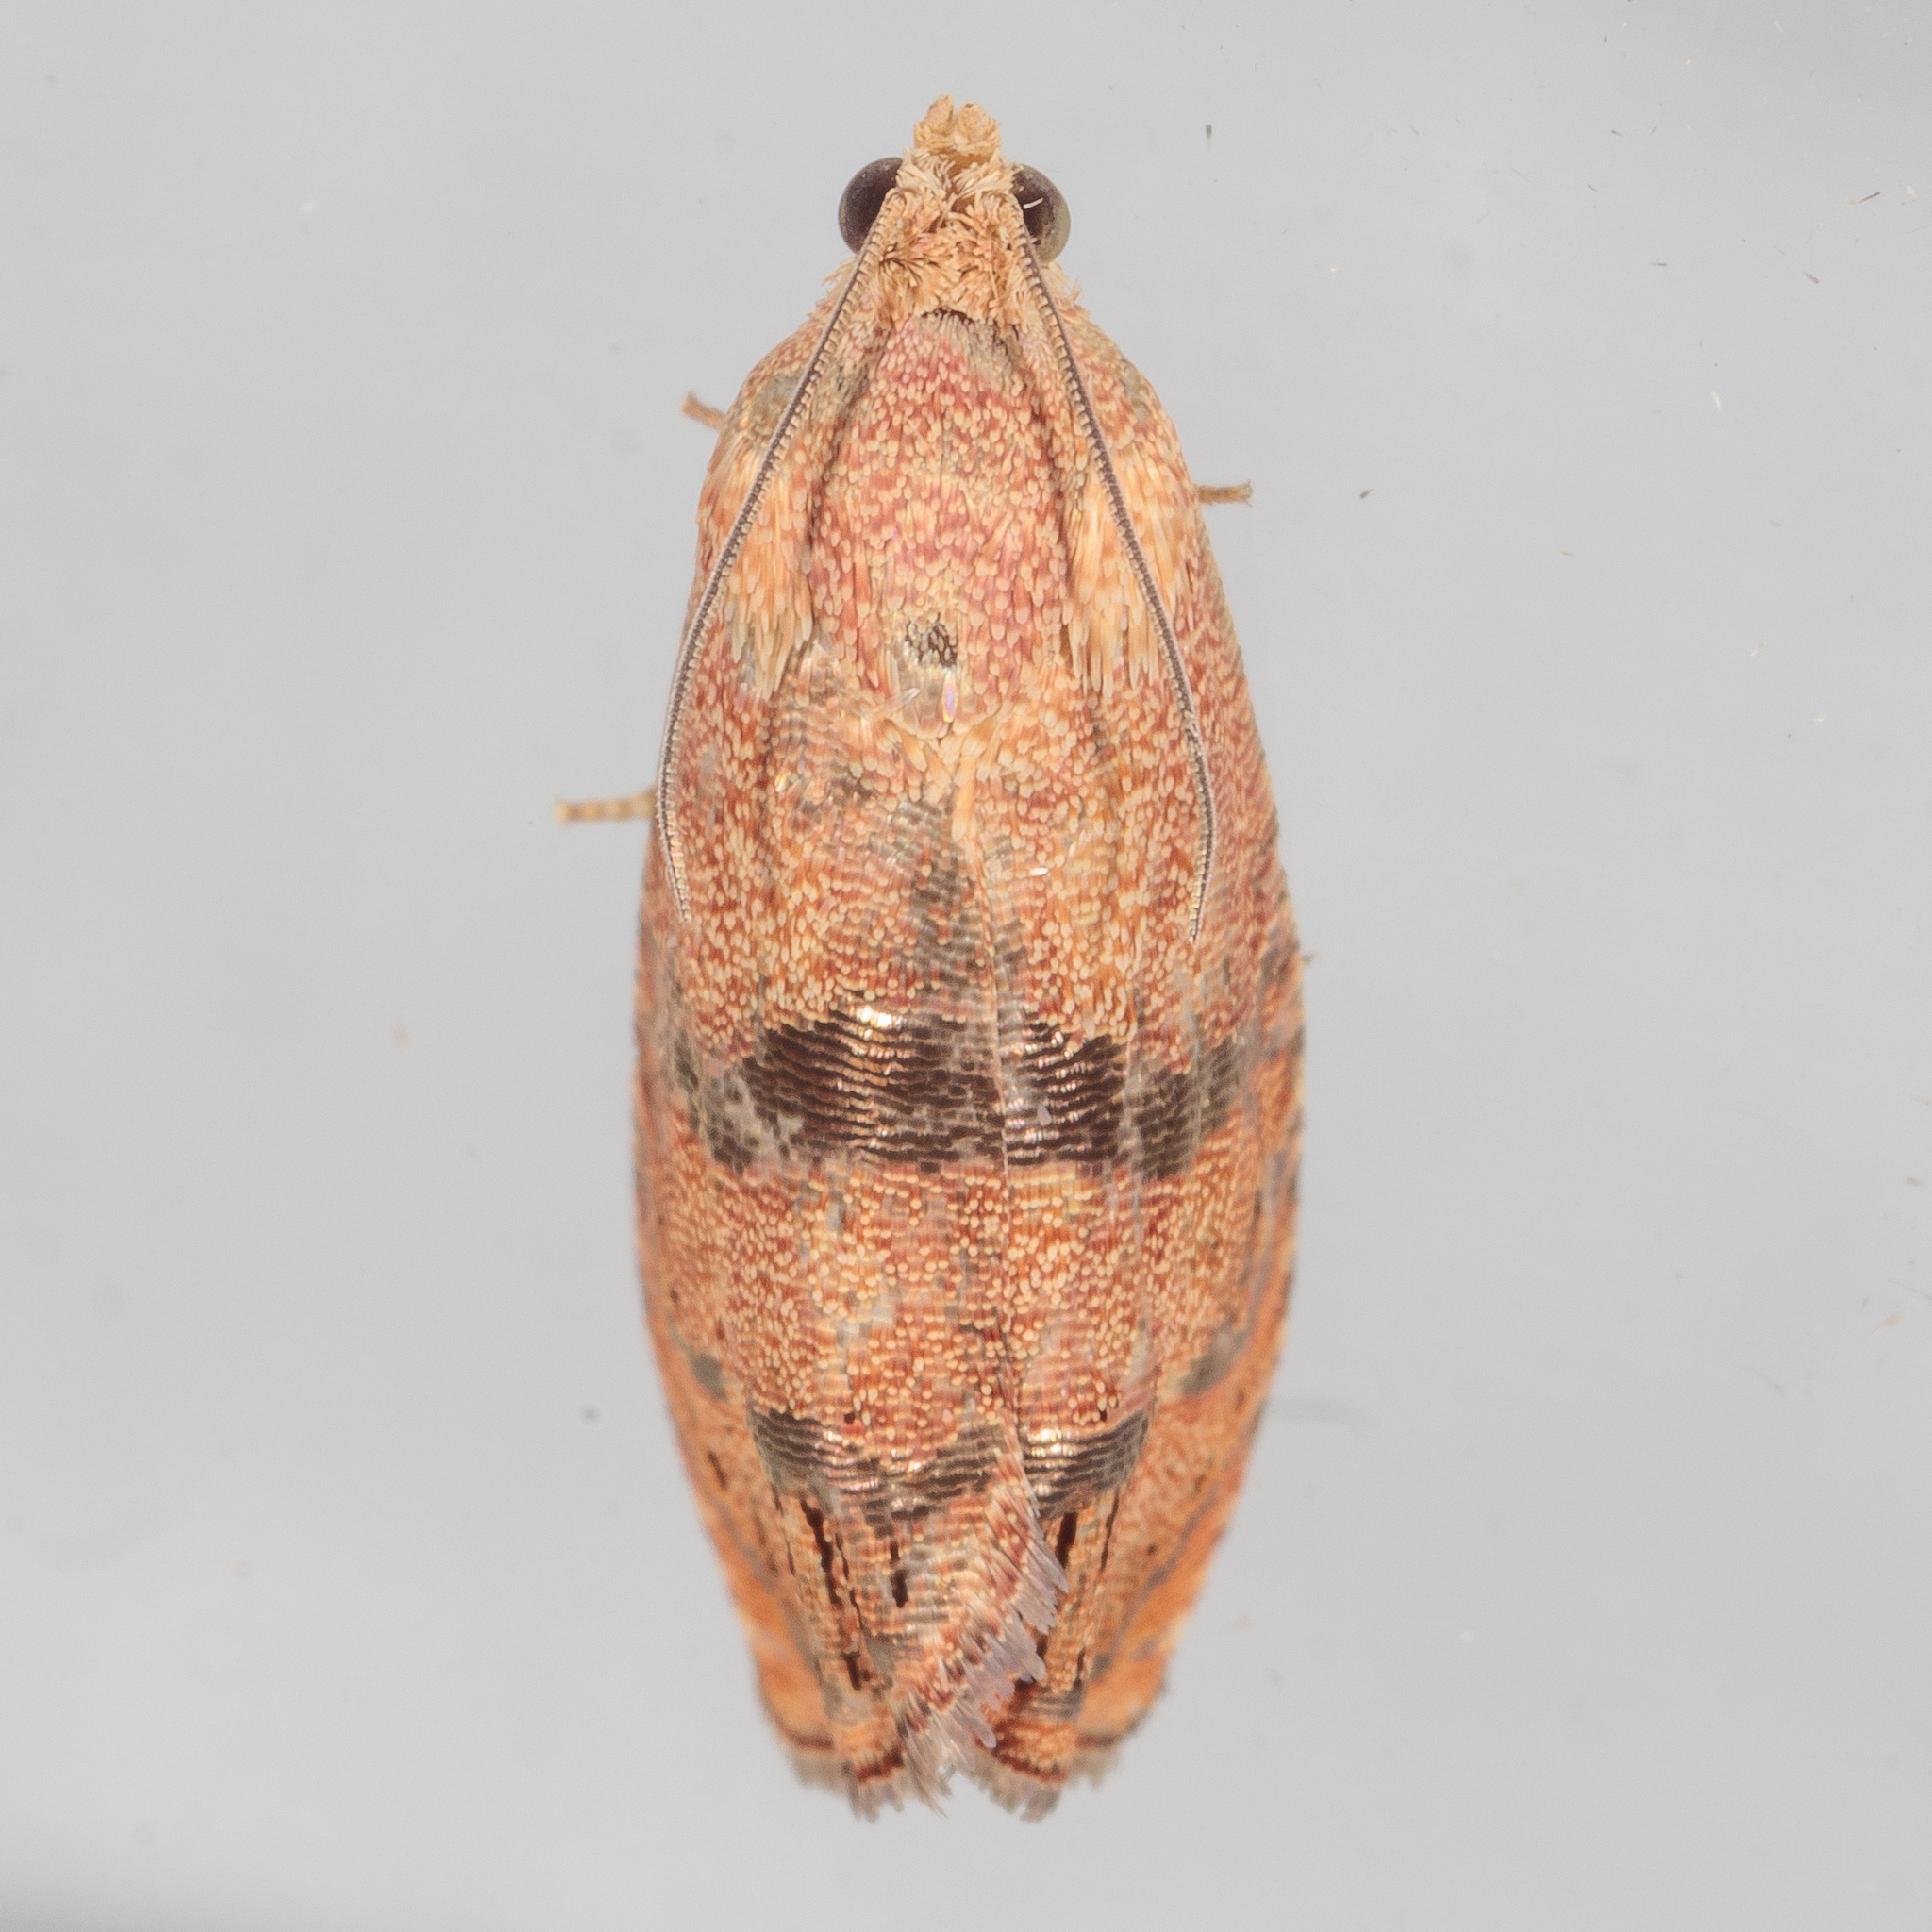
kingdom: Animalia
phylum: Arthropoda
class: Insecta
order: Lepidoptera
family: Tortricidae
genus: Cydia
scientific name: Cydia latiferreana
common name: Filbertworm moth
